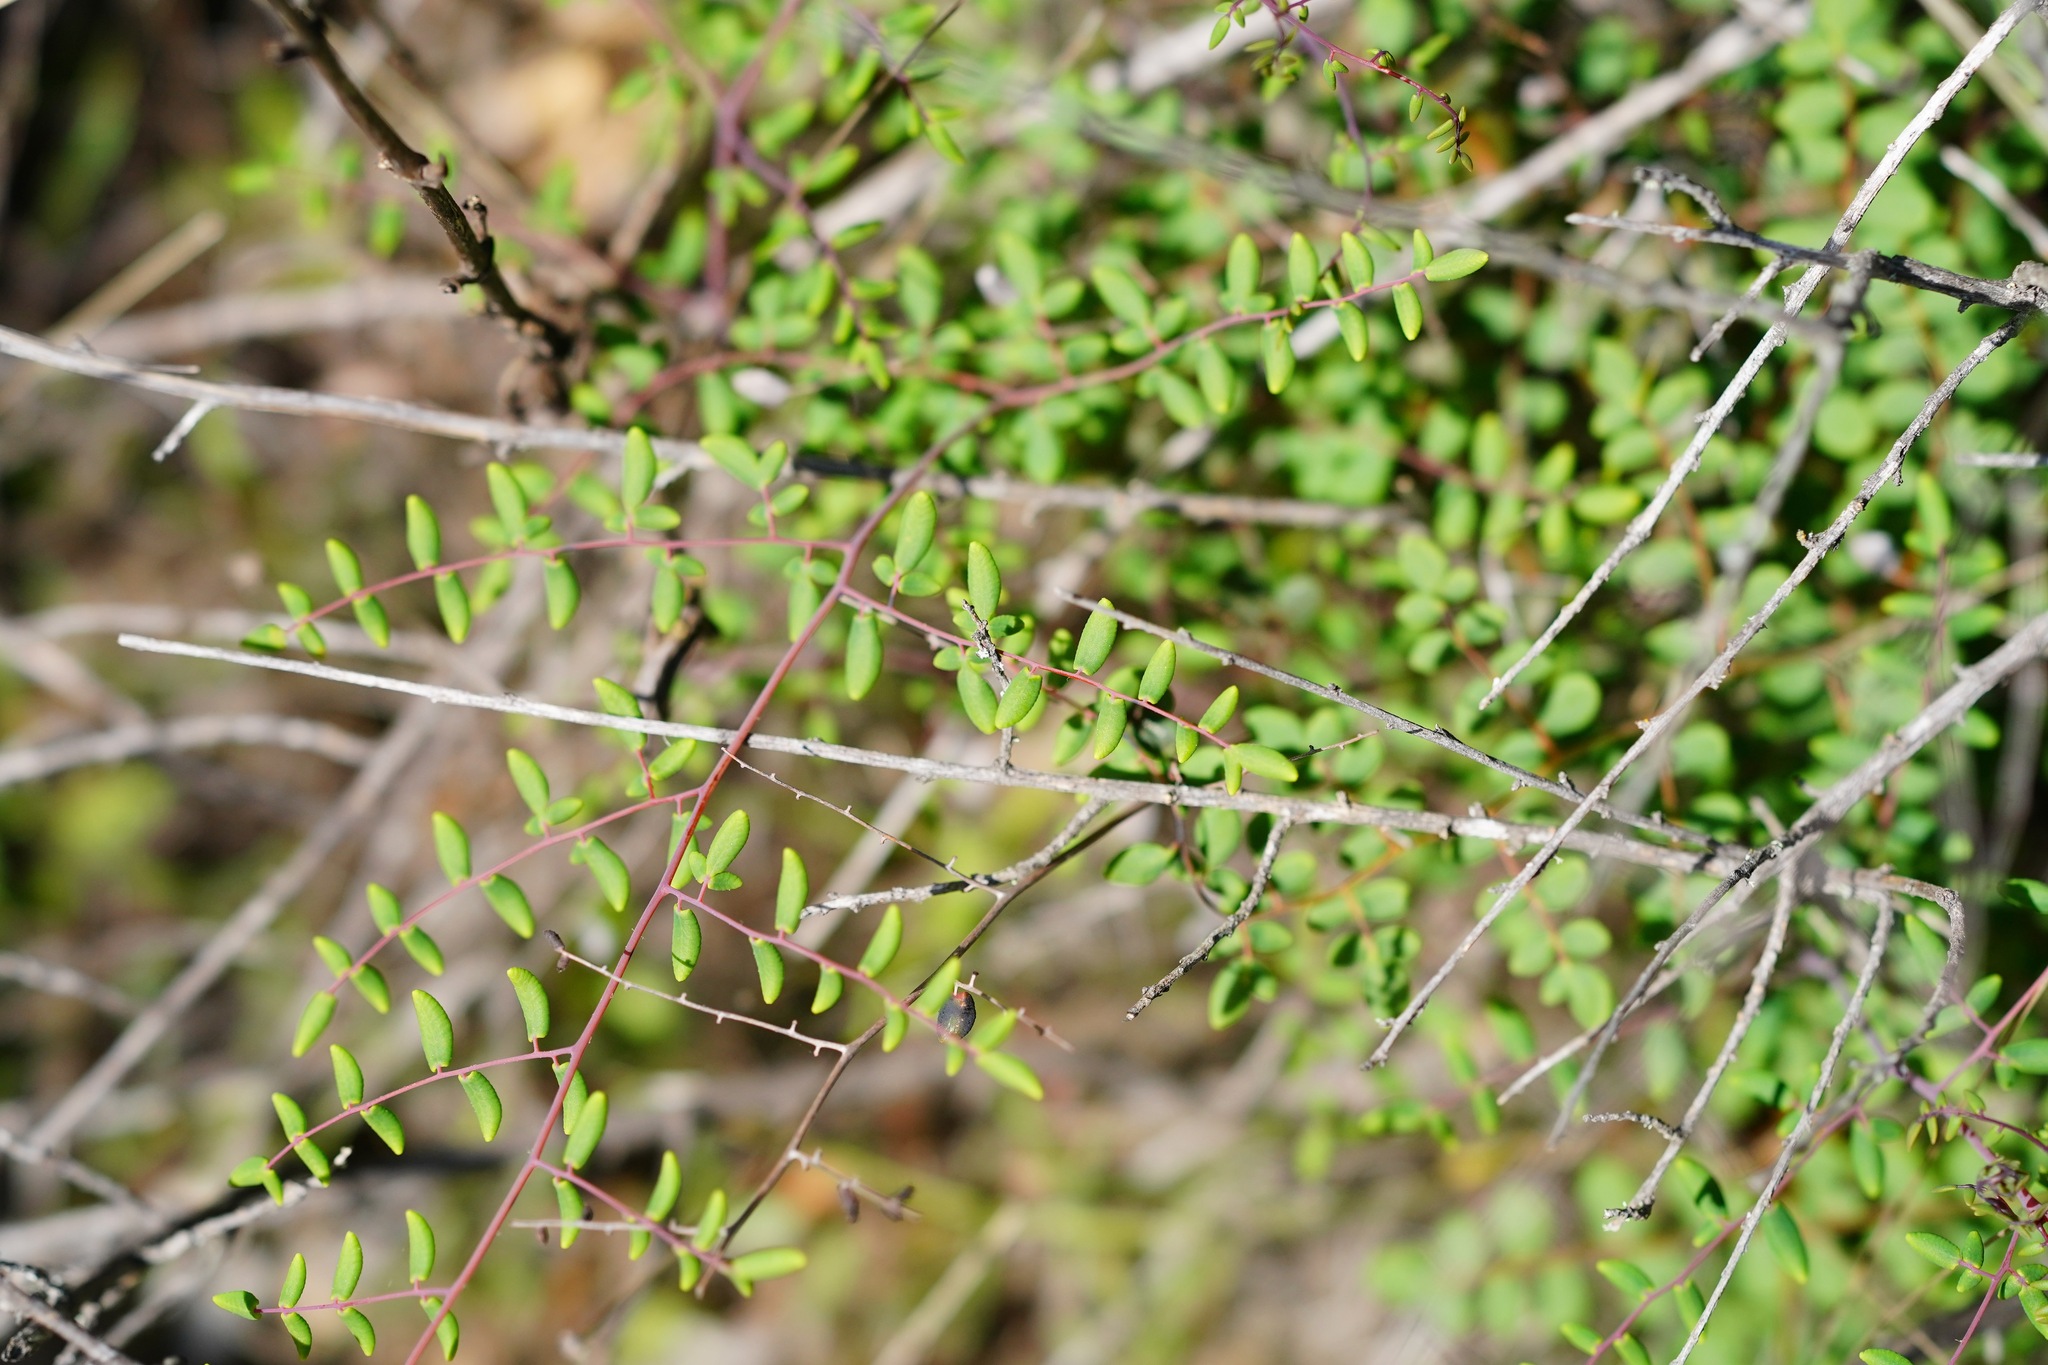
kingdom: Plantae
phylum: Tracheophyta
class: Polypodiopsida
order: Polypodiales
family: Pteridaceae
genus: Pellaea
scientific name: Pellaea andromedifolia
